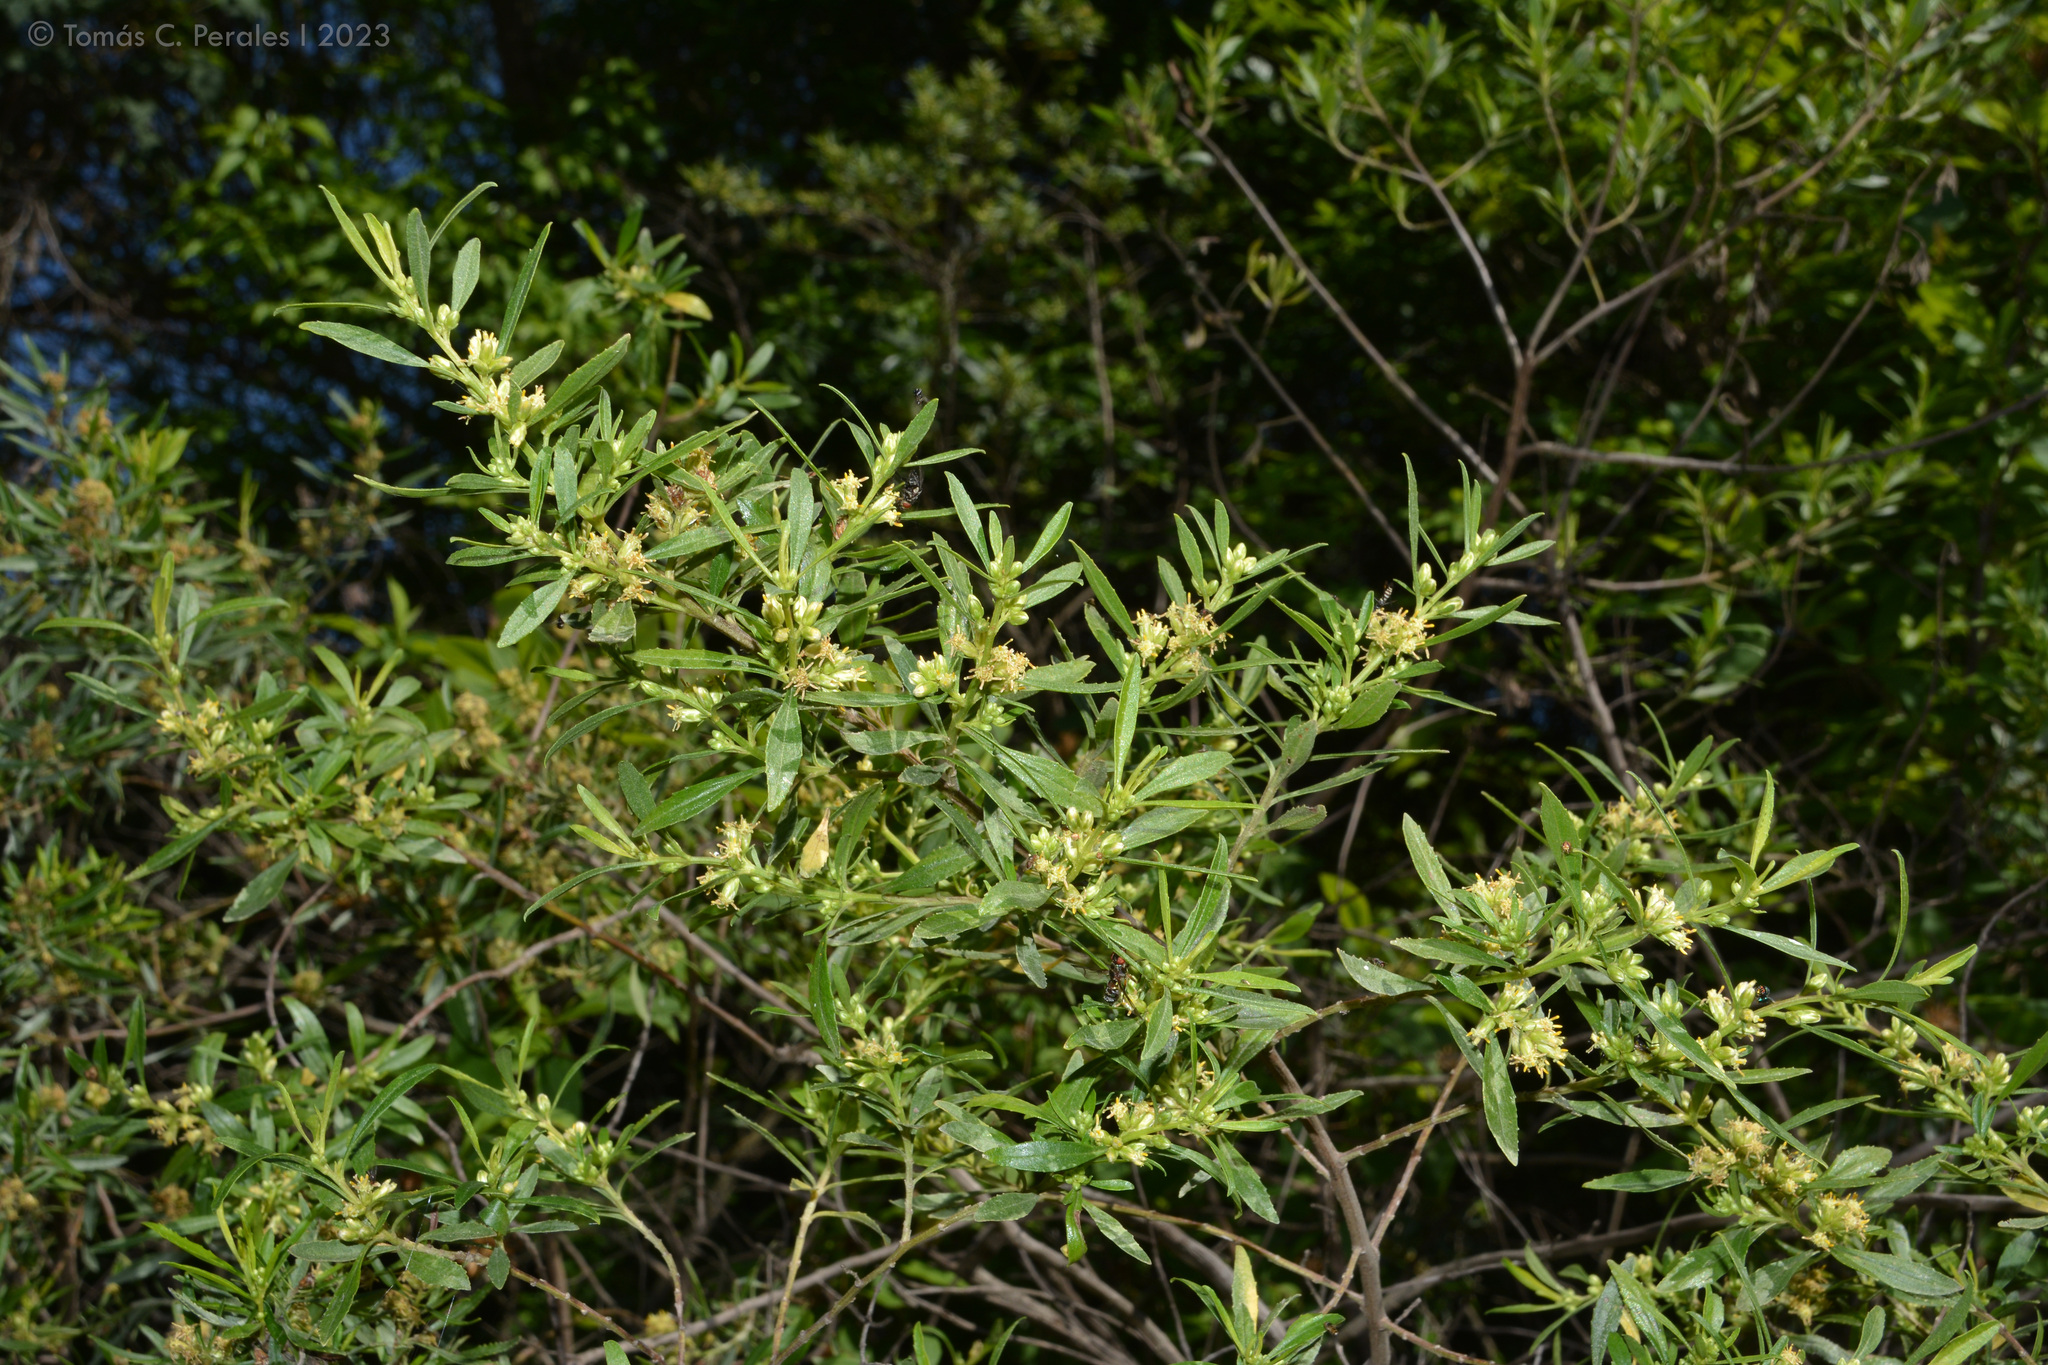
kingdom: Plantae
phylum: Tracheophyta
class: Magnoliopsida
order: Asterales
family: Asteraceae
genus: Baccharis
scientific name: Baccharis microdonta
